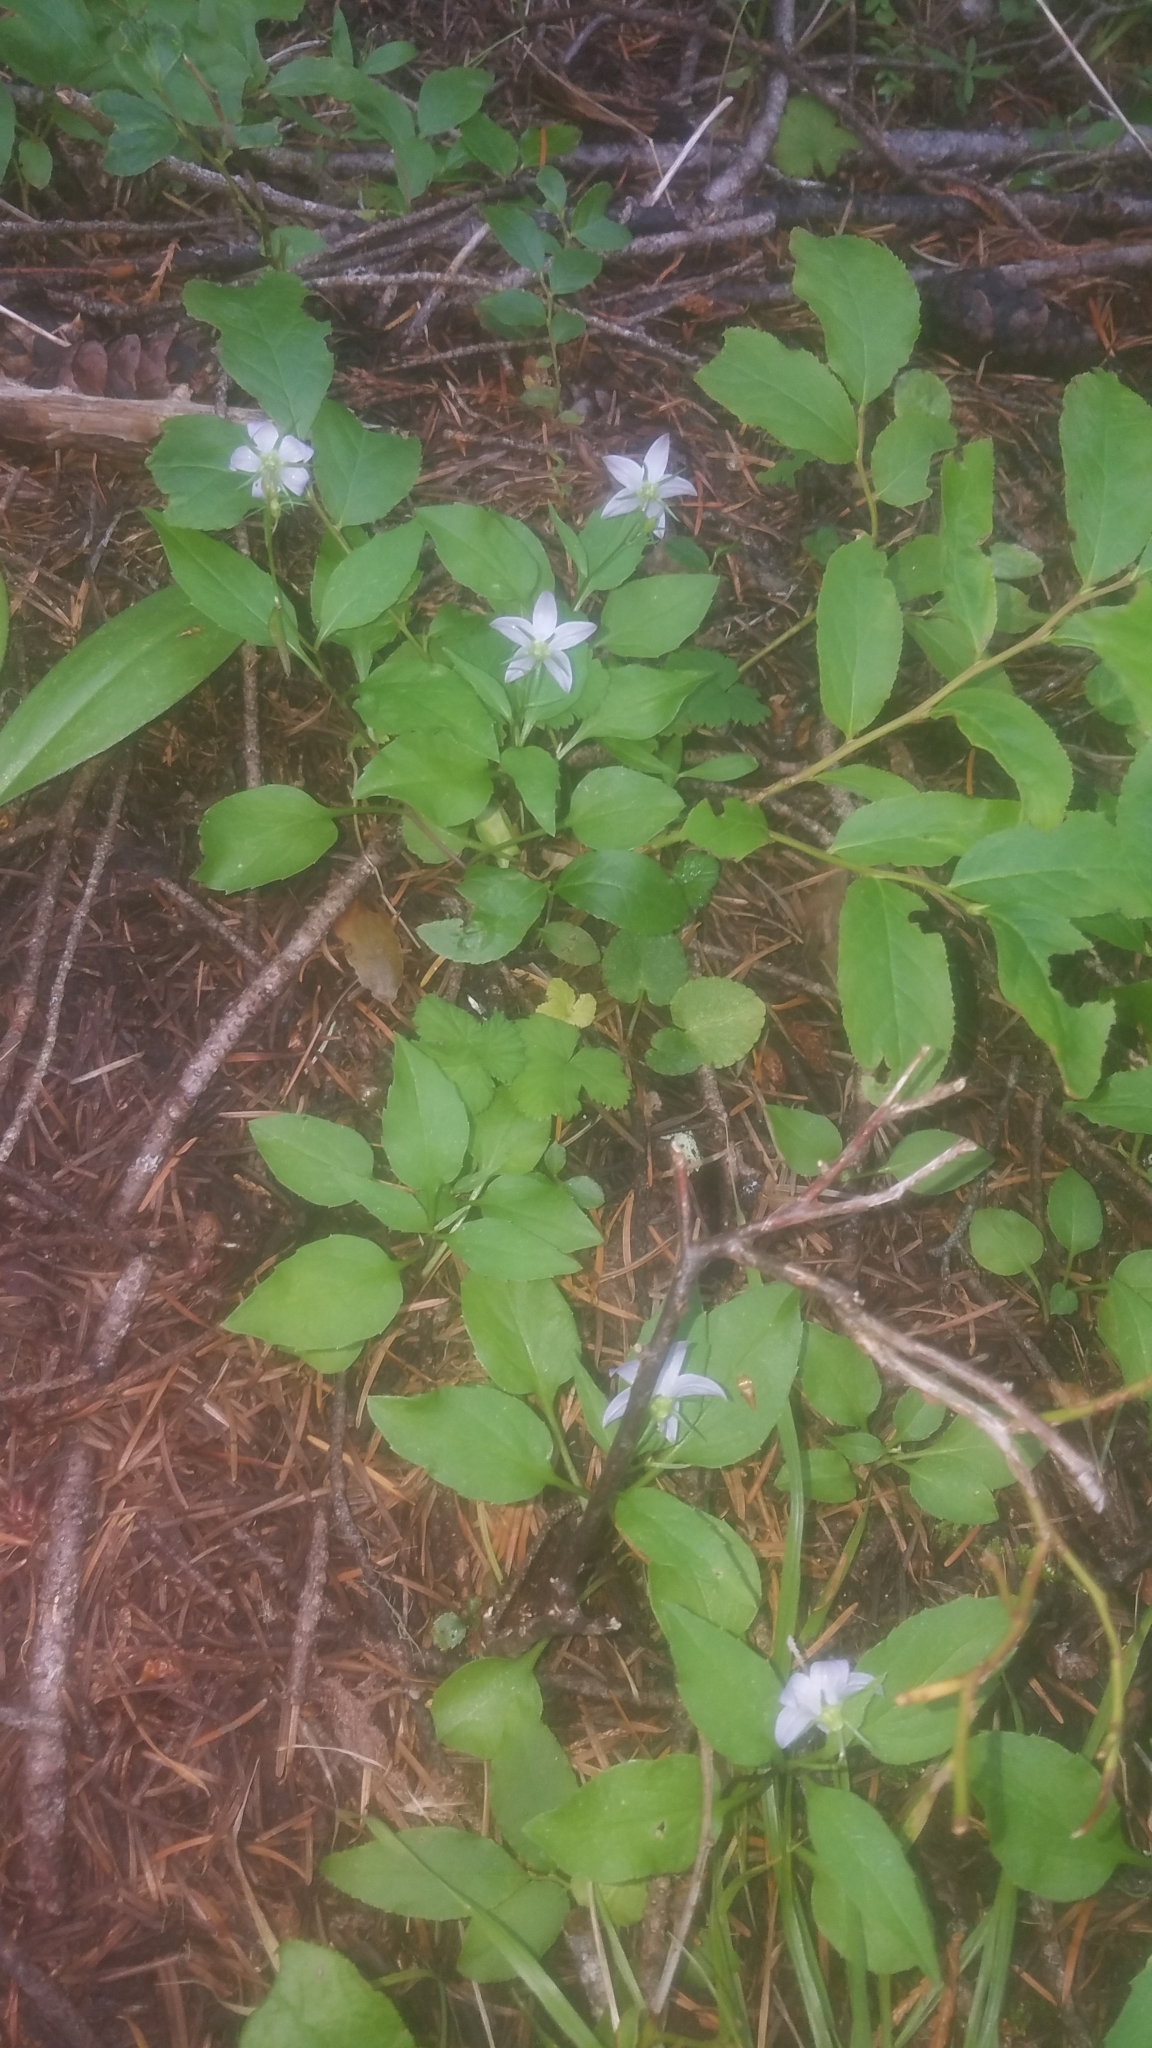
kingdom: Plantae
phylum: Tracheophyta
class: Magnoliopsida
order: Asterales
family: Campanulaceae
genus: Campanula
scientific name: Campanula scouleri
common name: Scouler's harebell
